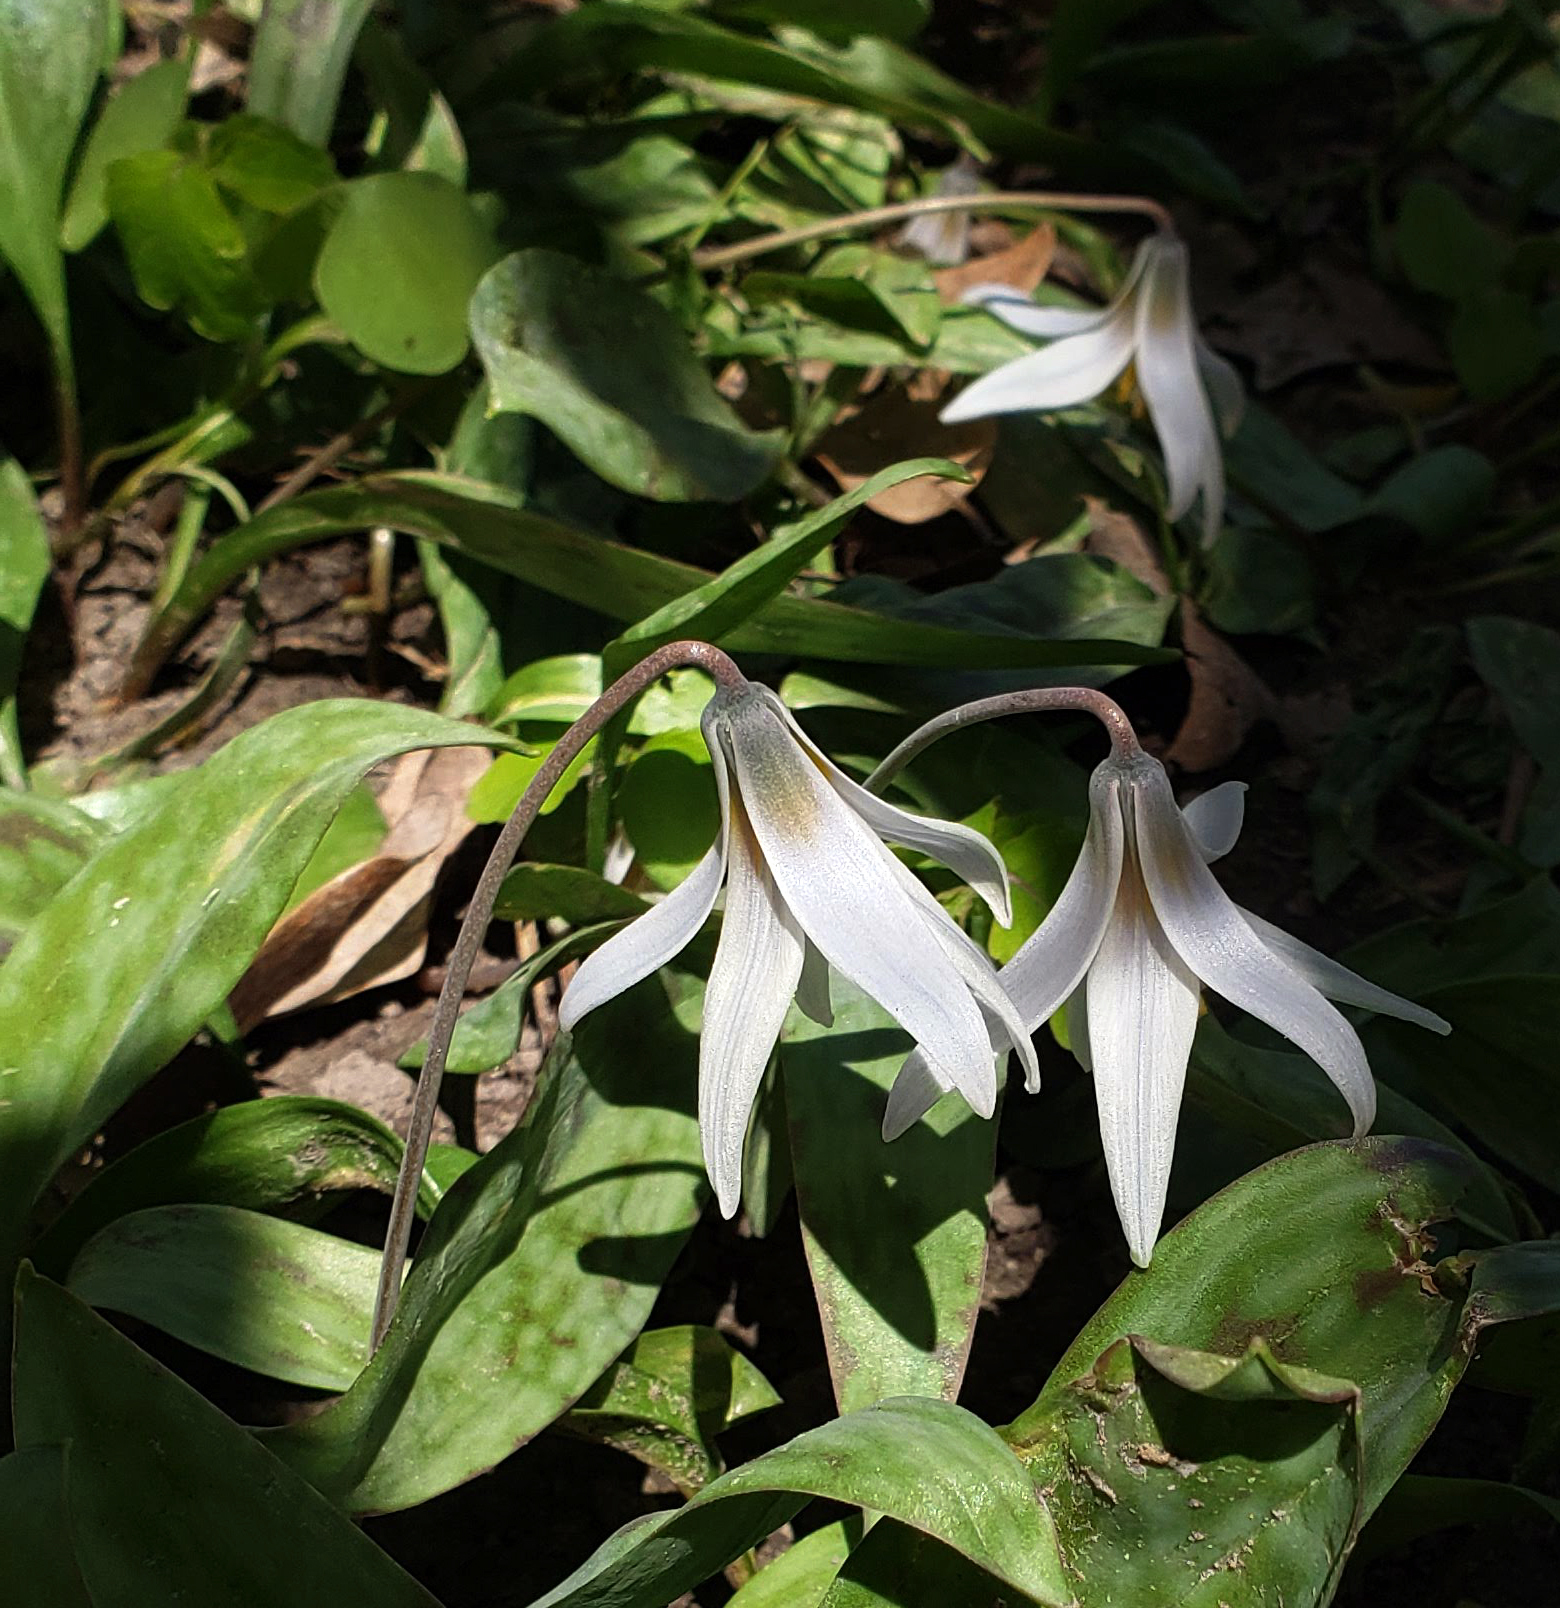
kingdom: Plantae
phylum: Tracheophyta
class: Liliopsida
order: Liliales
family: Liliaceae
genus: Erythronium
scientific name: Erythronium albidum
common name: White trout-lily
